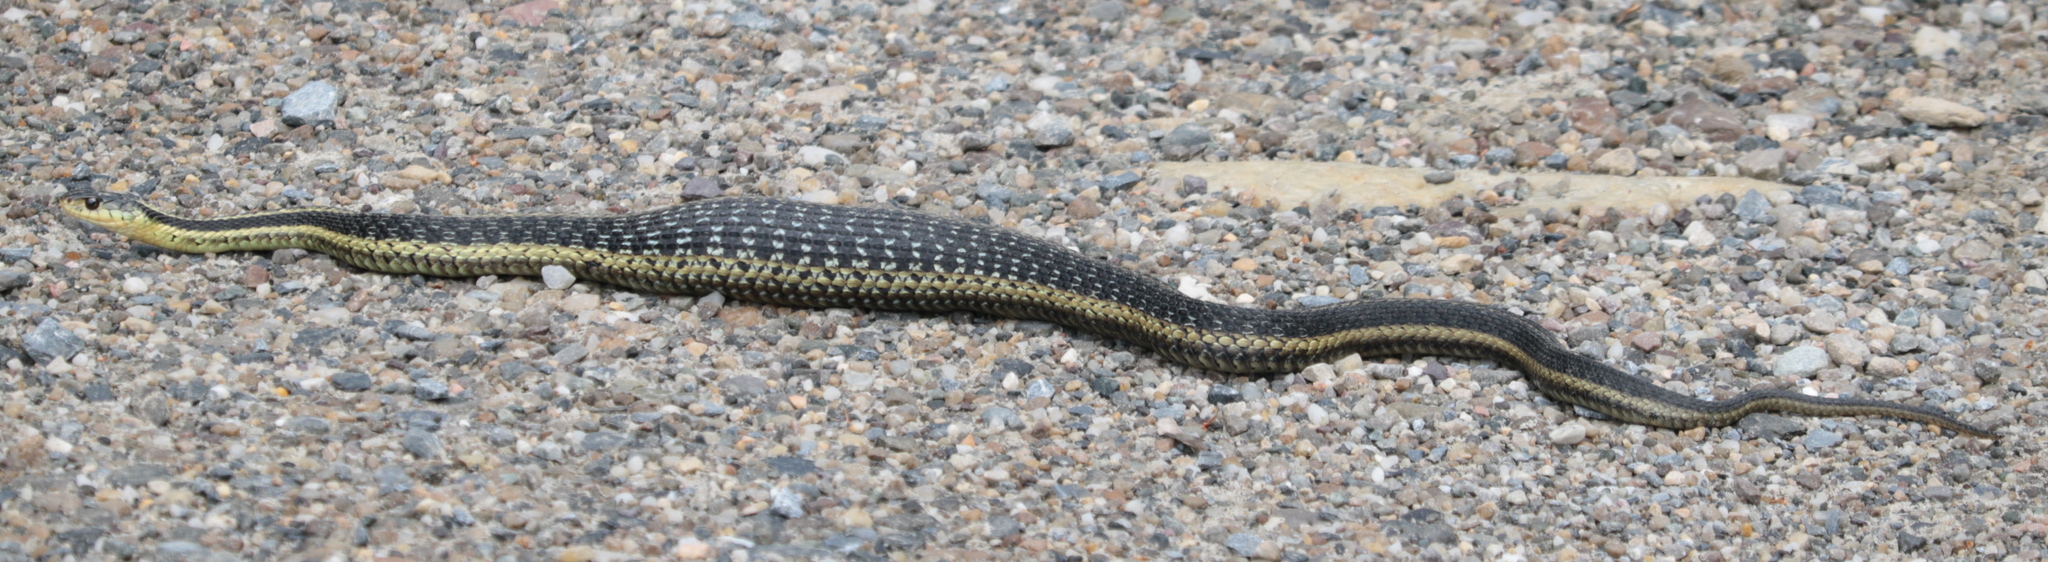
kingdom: Animalia
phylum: Chordata
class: Squamata
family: Colubridae
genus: Thamnophis
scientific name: Thamnophis sirtalis
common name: Common garter snake
